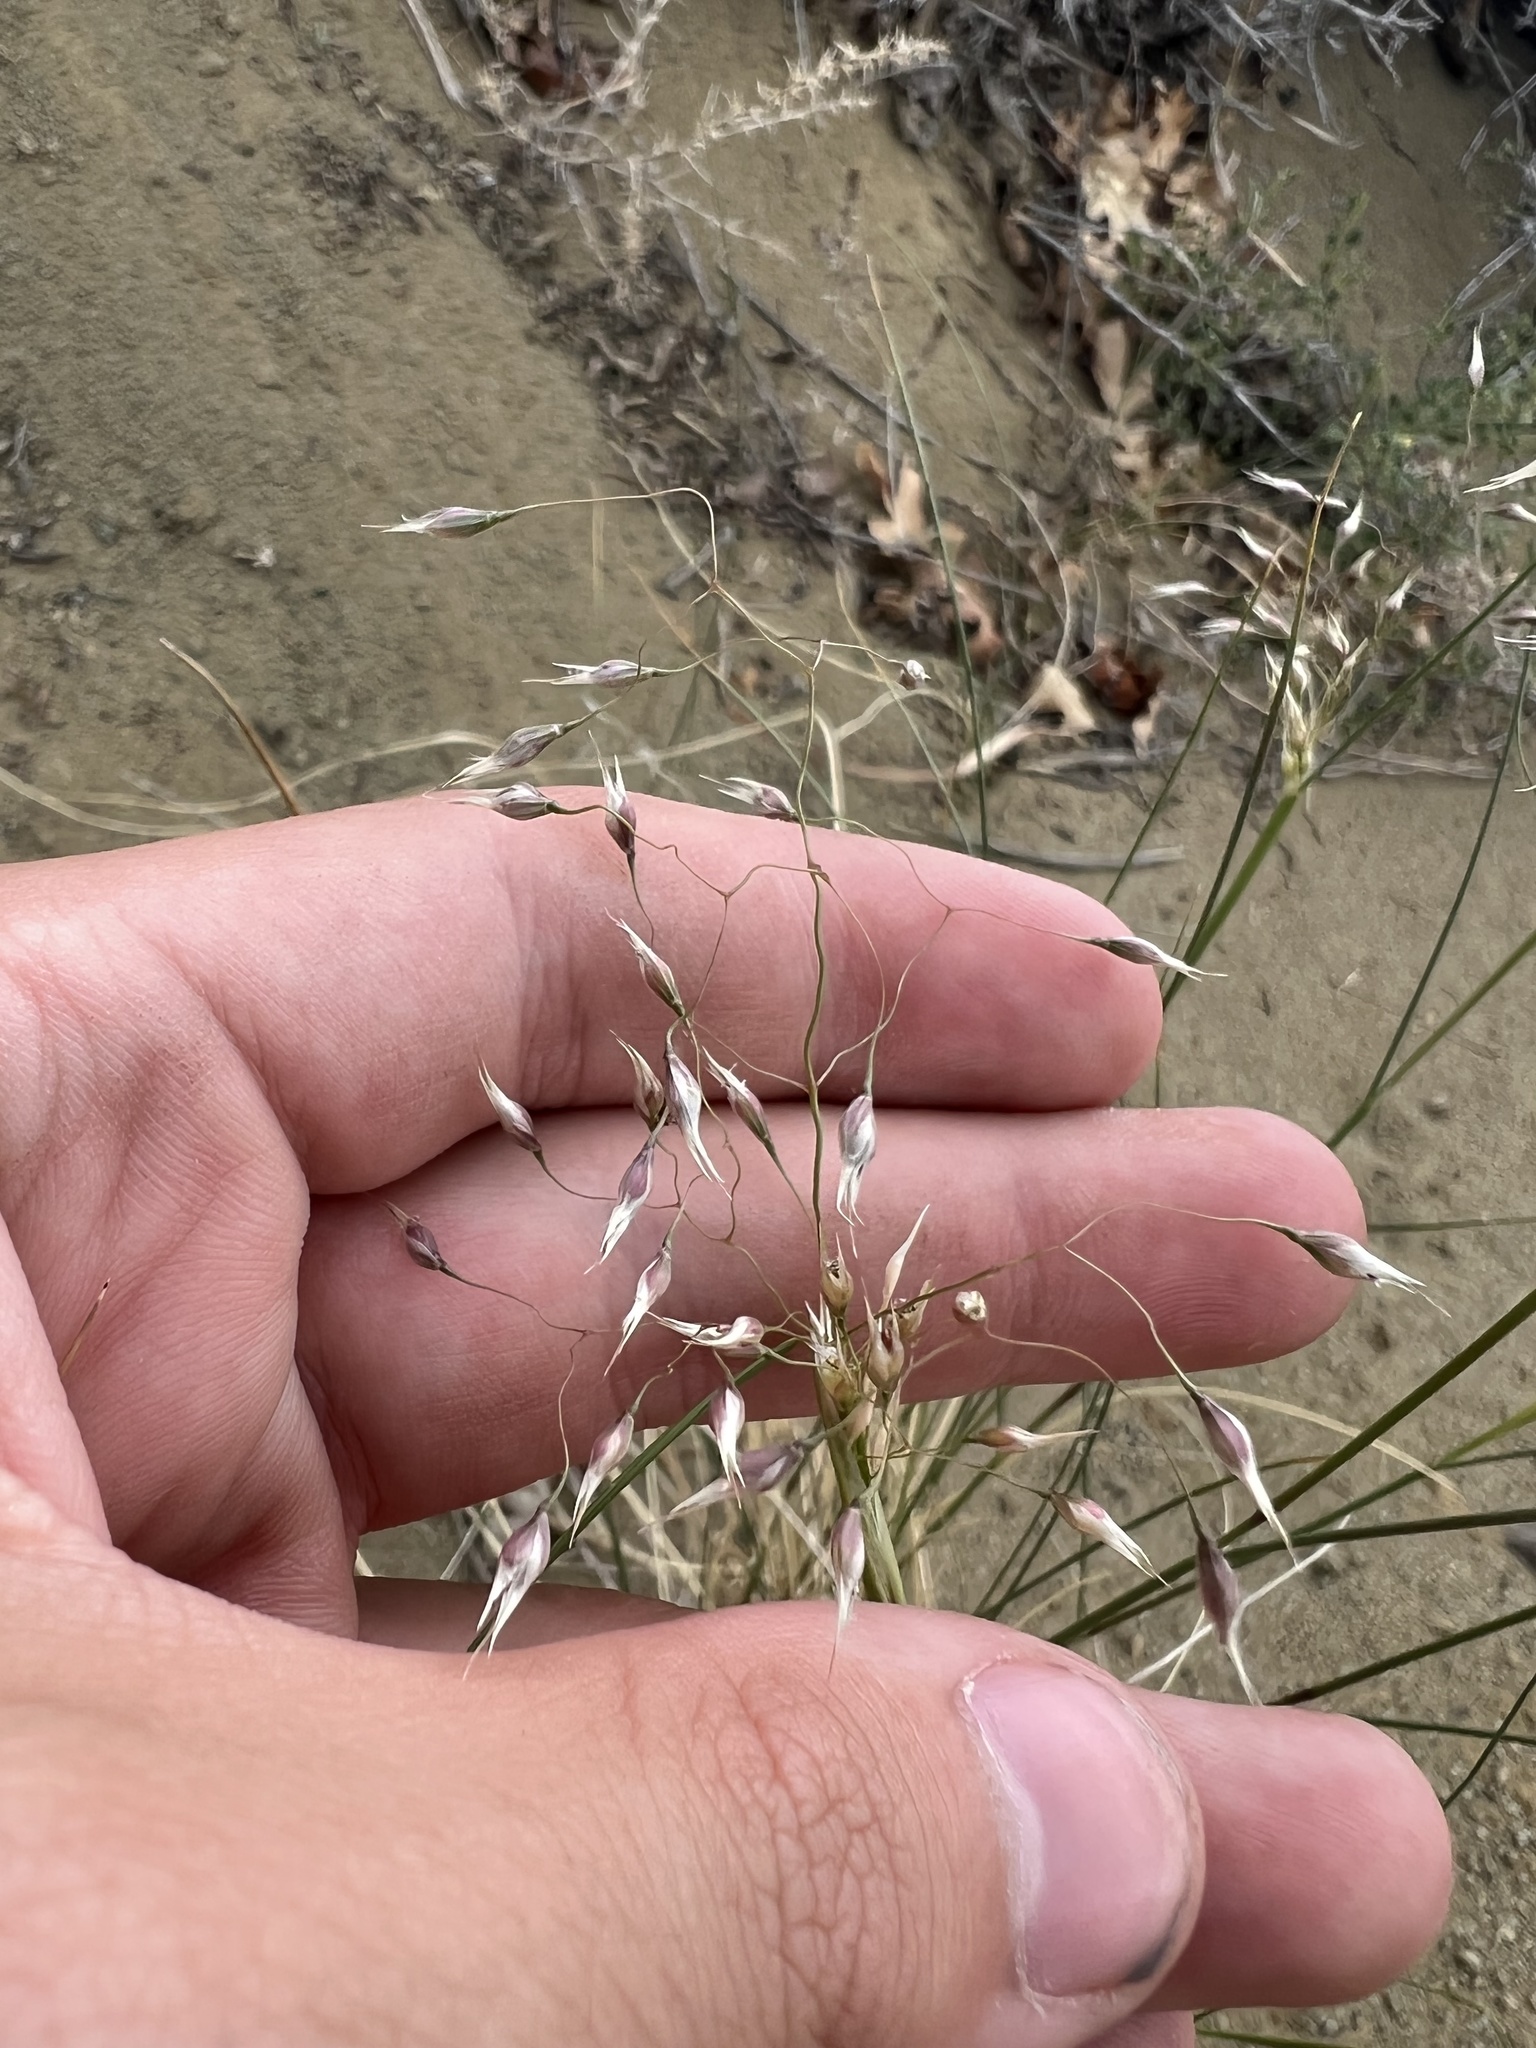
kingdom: Plantae
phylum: Tracheophyta
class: Liliopsida
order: Poales
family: Poaceae
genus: Eriocoma
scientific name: Eriocoma hymenoides
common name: Indian mountain ricegrass
